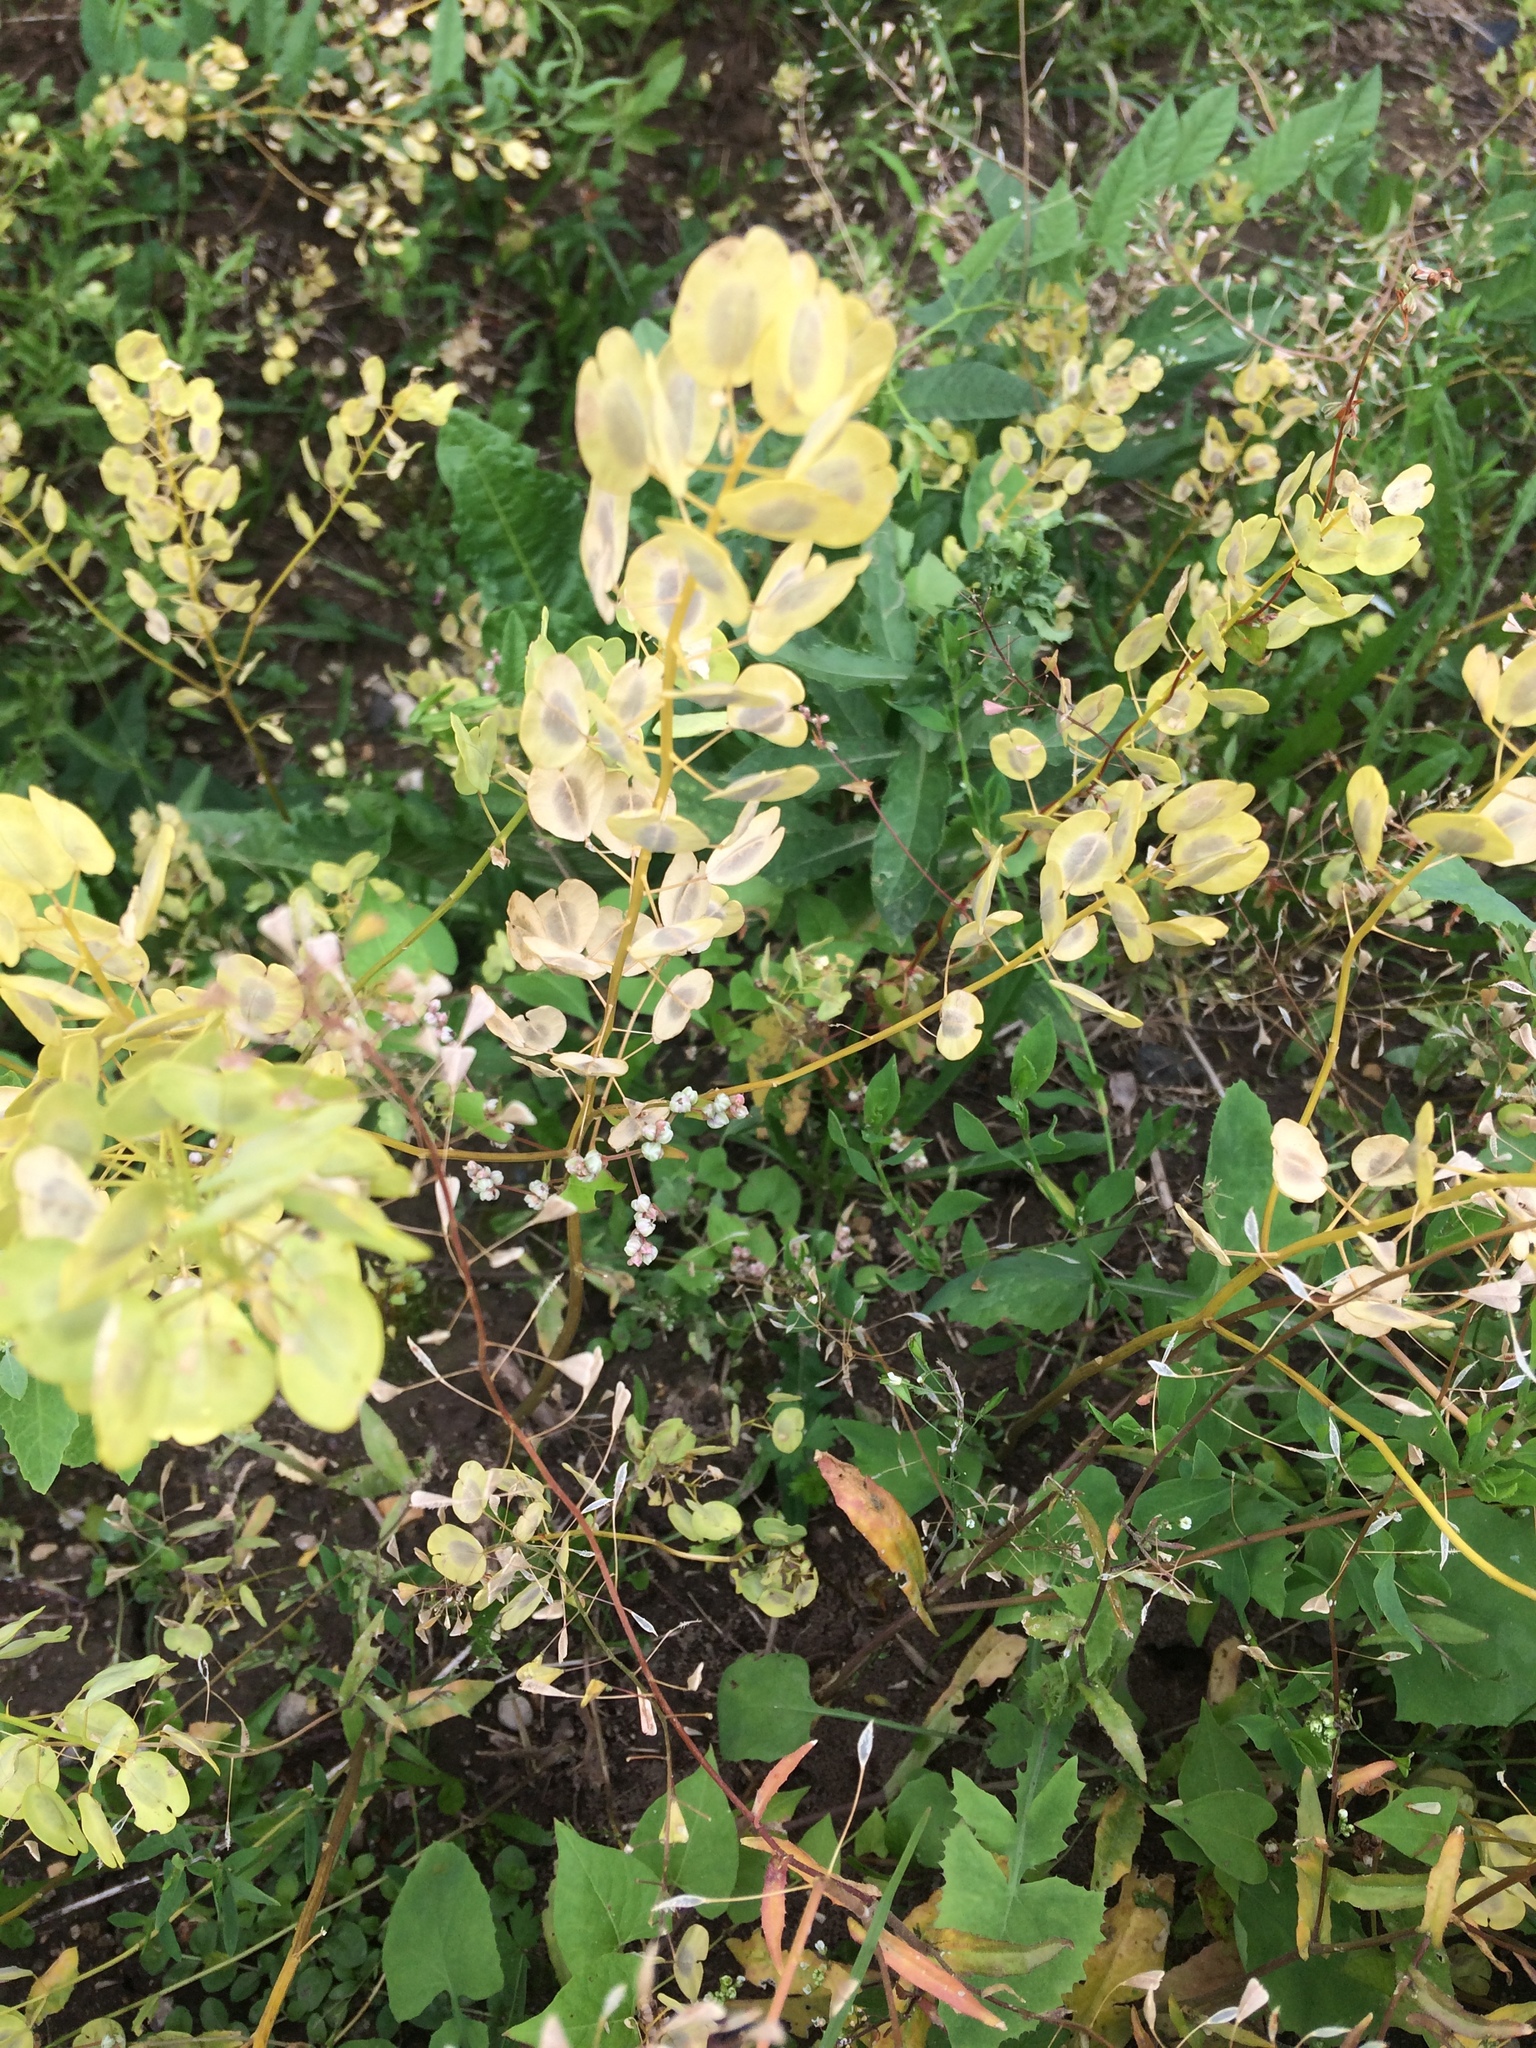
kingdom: Plantae
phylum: Tracheophyta
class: Magnoliopsida
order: Brassicales
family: Brassicaceae
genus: Thlaspi
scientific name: Thlaspi arvense
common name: Field pennycress
